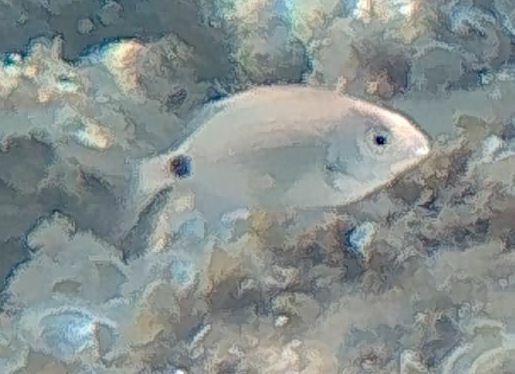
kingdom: Animalia
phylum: Chordata
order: Perciformes
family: Sparidae
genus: Diplodus
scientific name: Diplodus sargus
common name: White seabream
